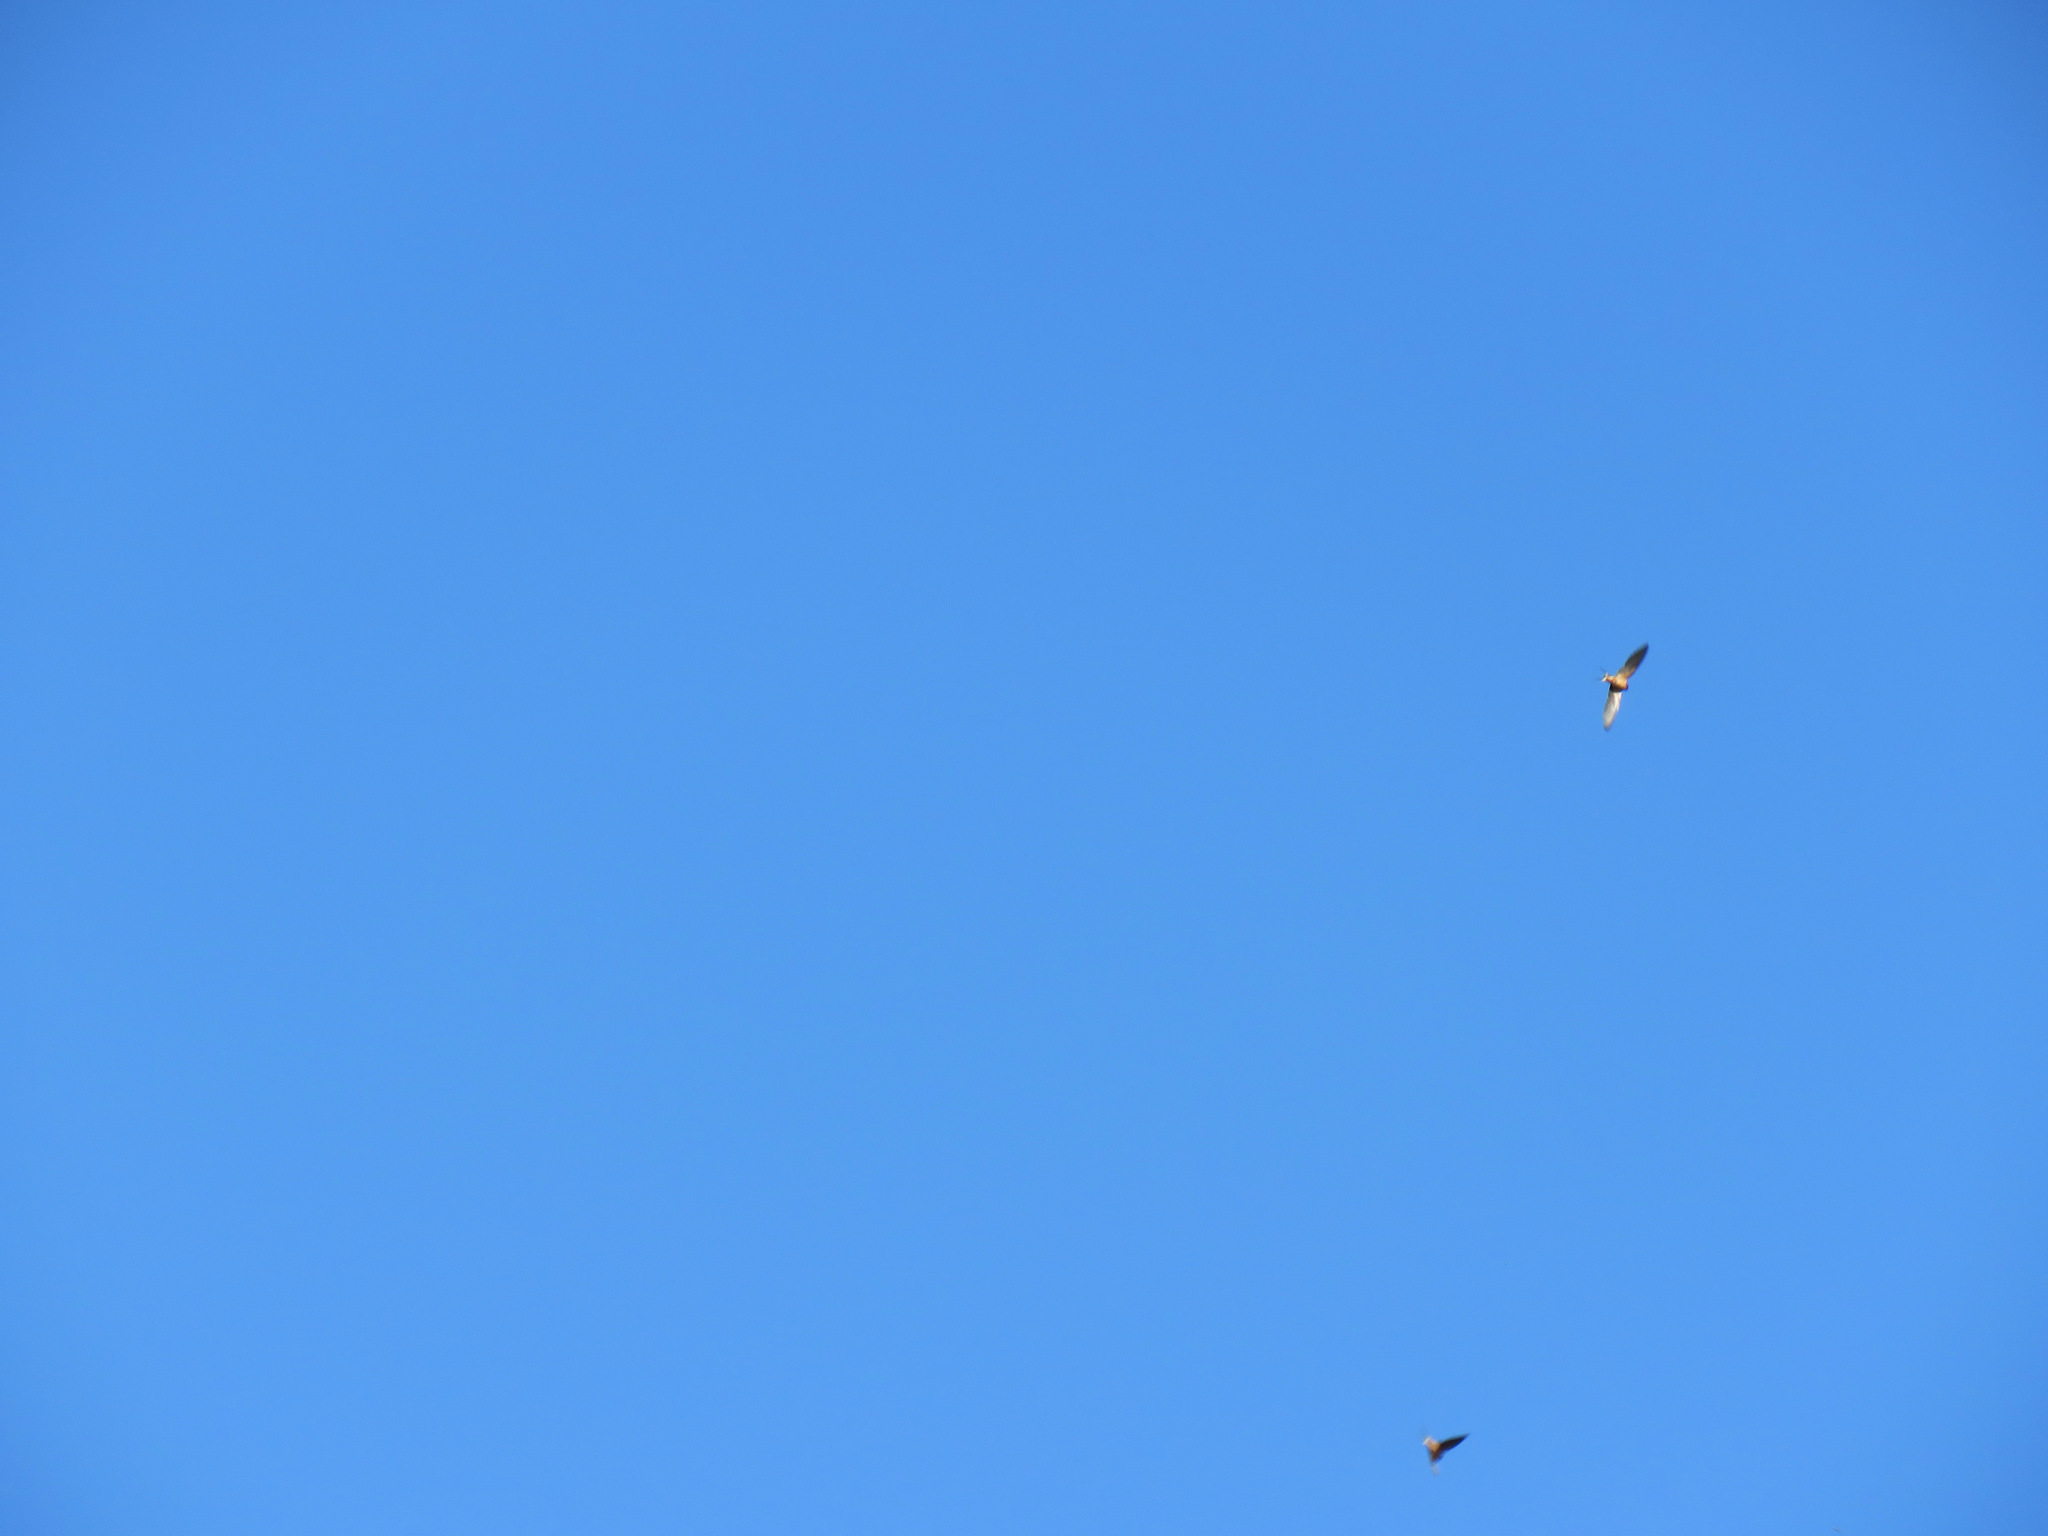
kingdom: Animalia
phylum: Chordata
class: Aves
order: Passeriformes
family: Hirundinidae
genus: Hirundo
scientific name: Hirundo rustica
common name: Barn swallow
